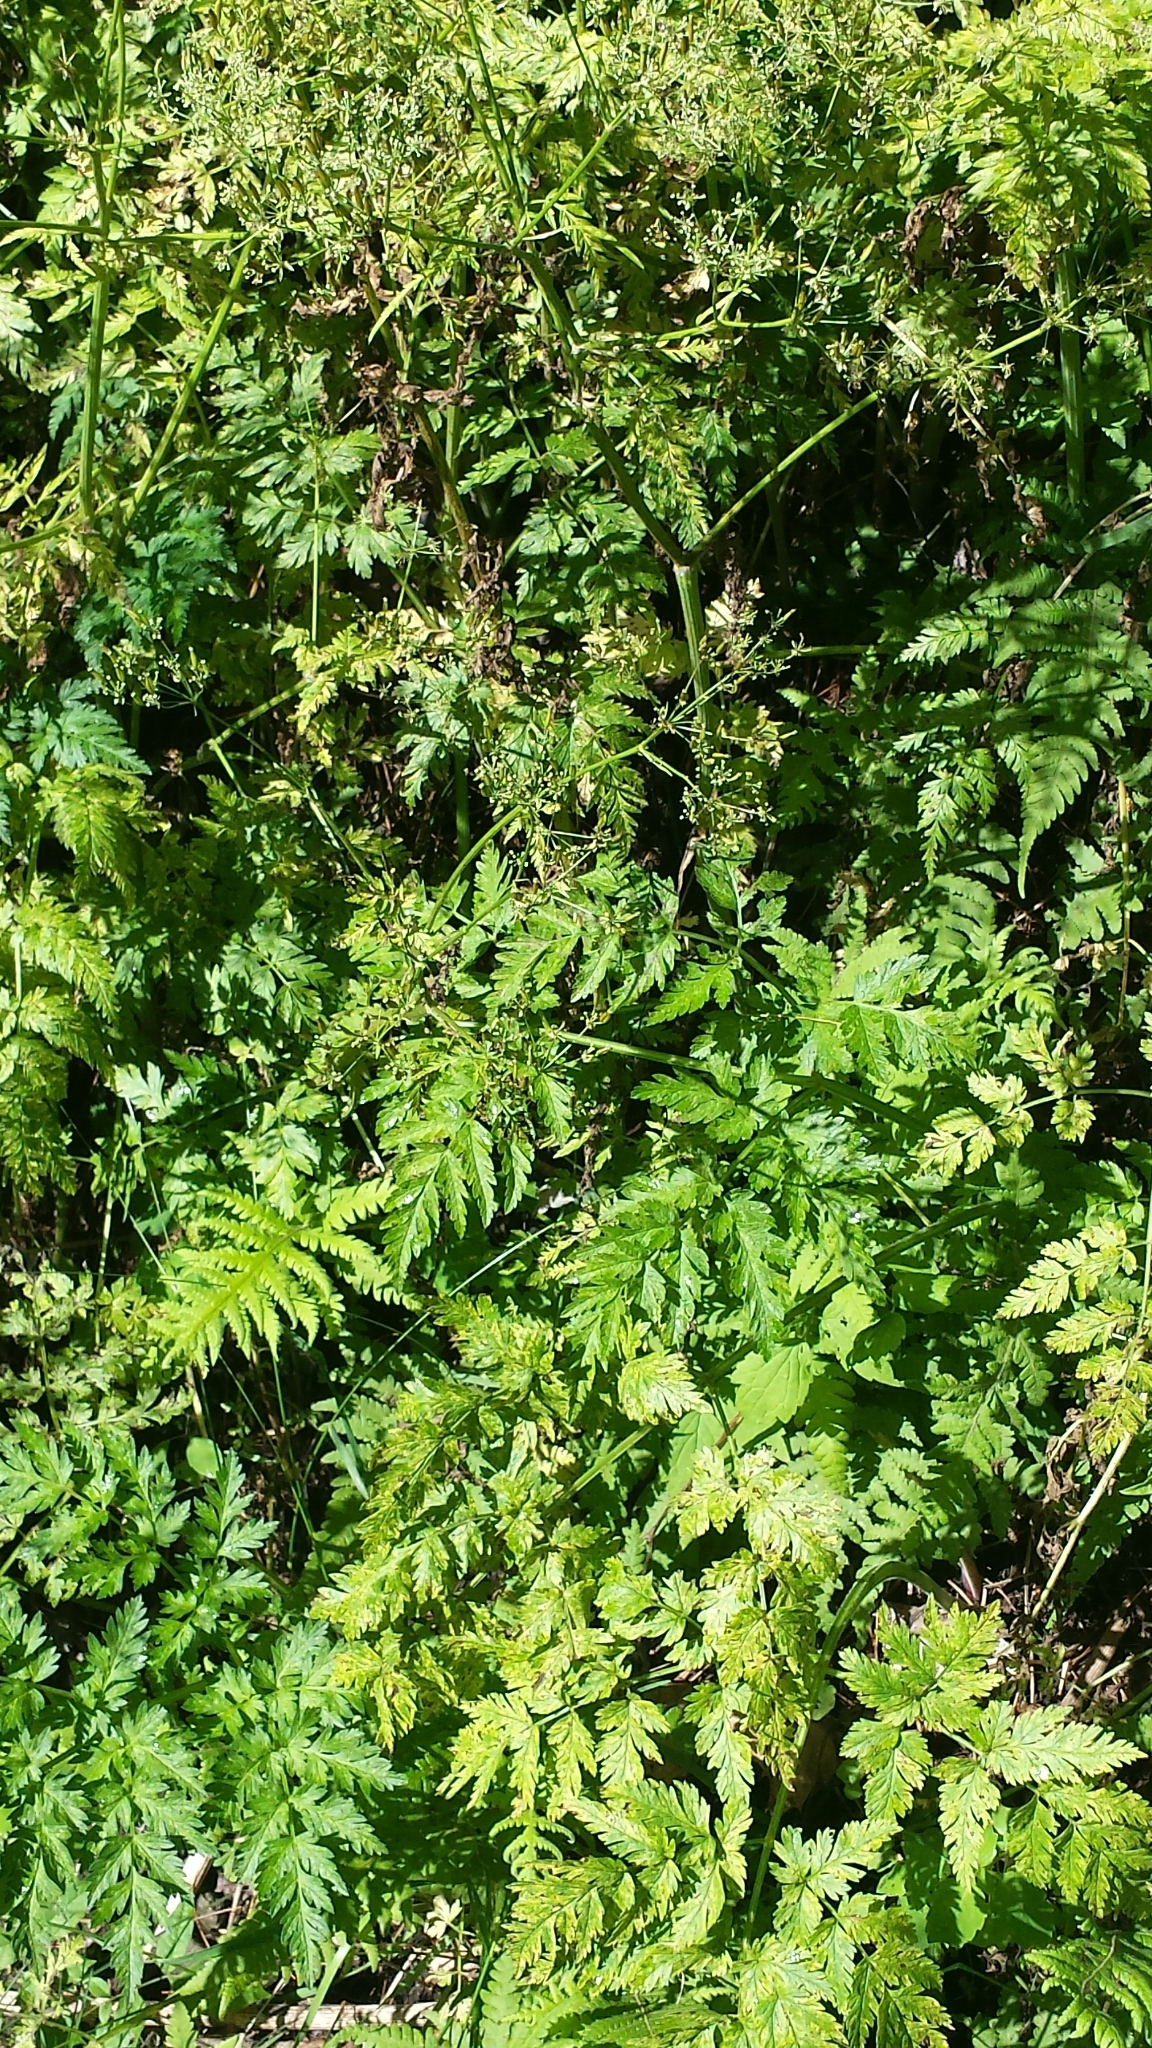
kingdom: Plantae
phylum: Tracheophyta
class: Magnoliopsida
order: Apiales
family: Apiaceae
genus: Anthriscus
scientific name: Anthriscus sylvestris
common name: Cow parsley
